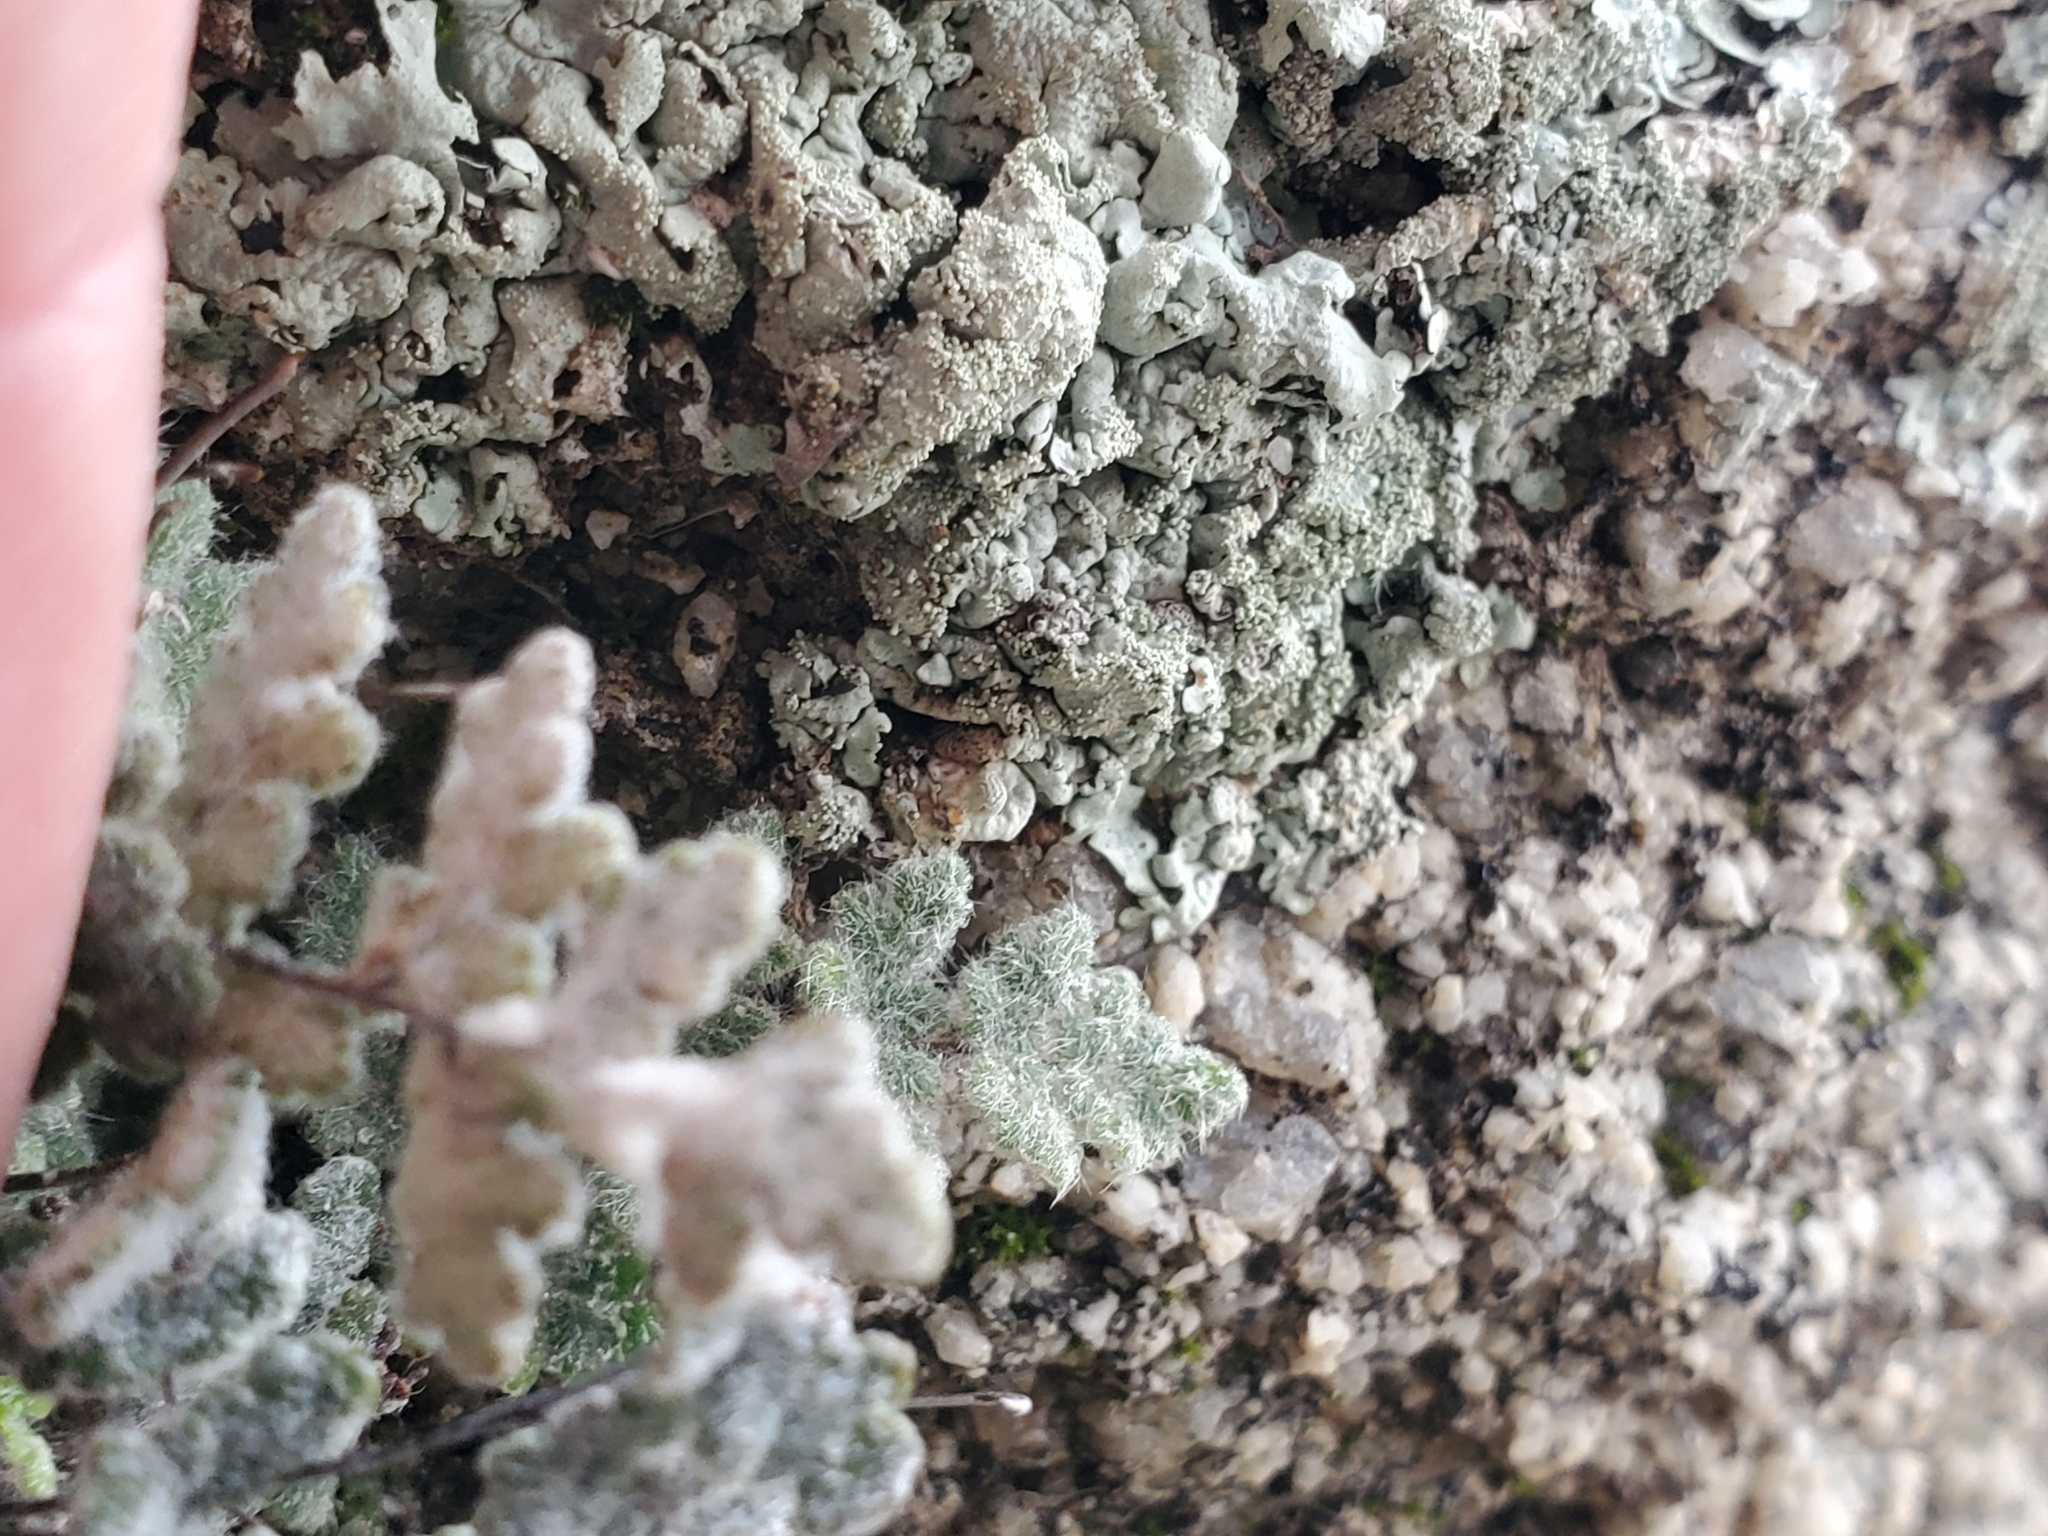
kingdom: Plantae
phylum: Tracheophyta
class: Polypodiopsida
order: Polypodiales
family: Pteridaceae
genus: Myriopteris
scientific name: Myriopteris parryi
